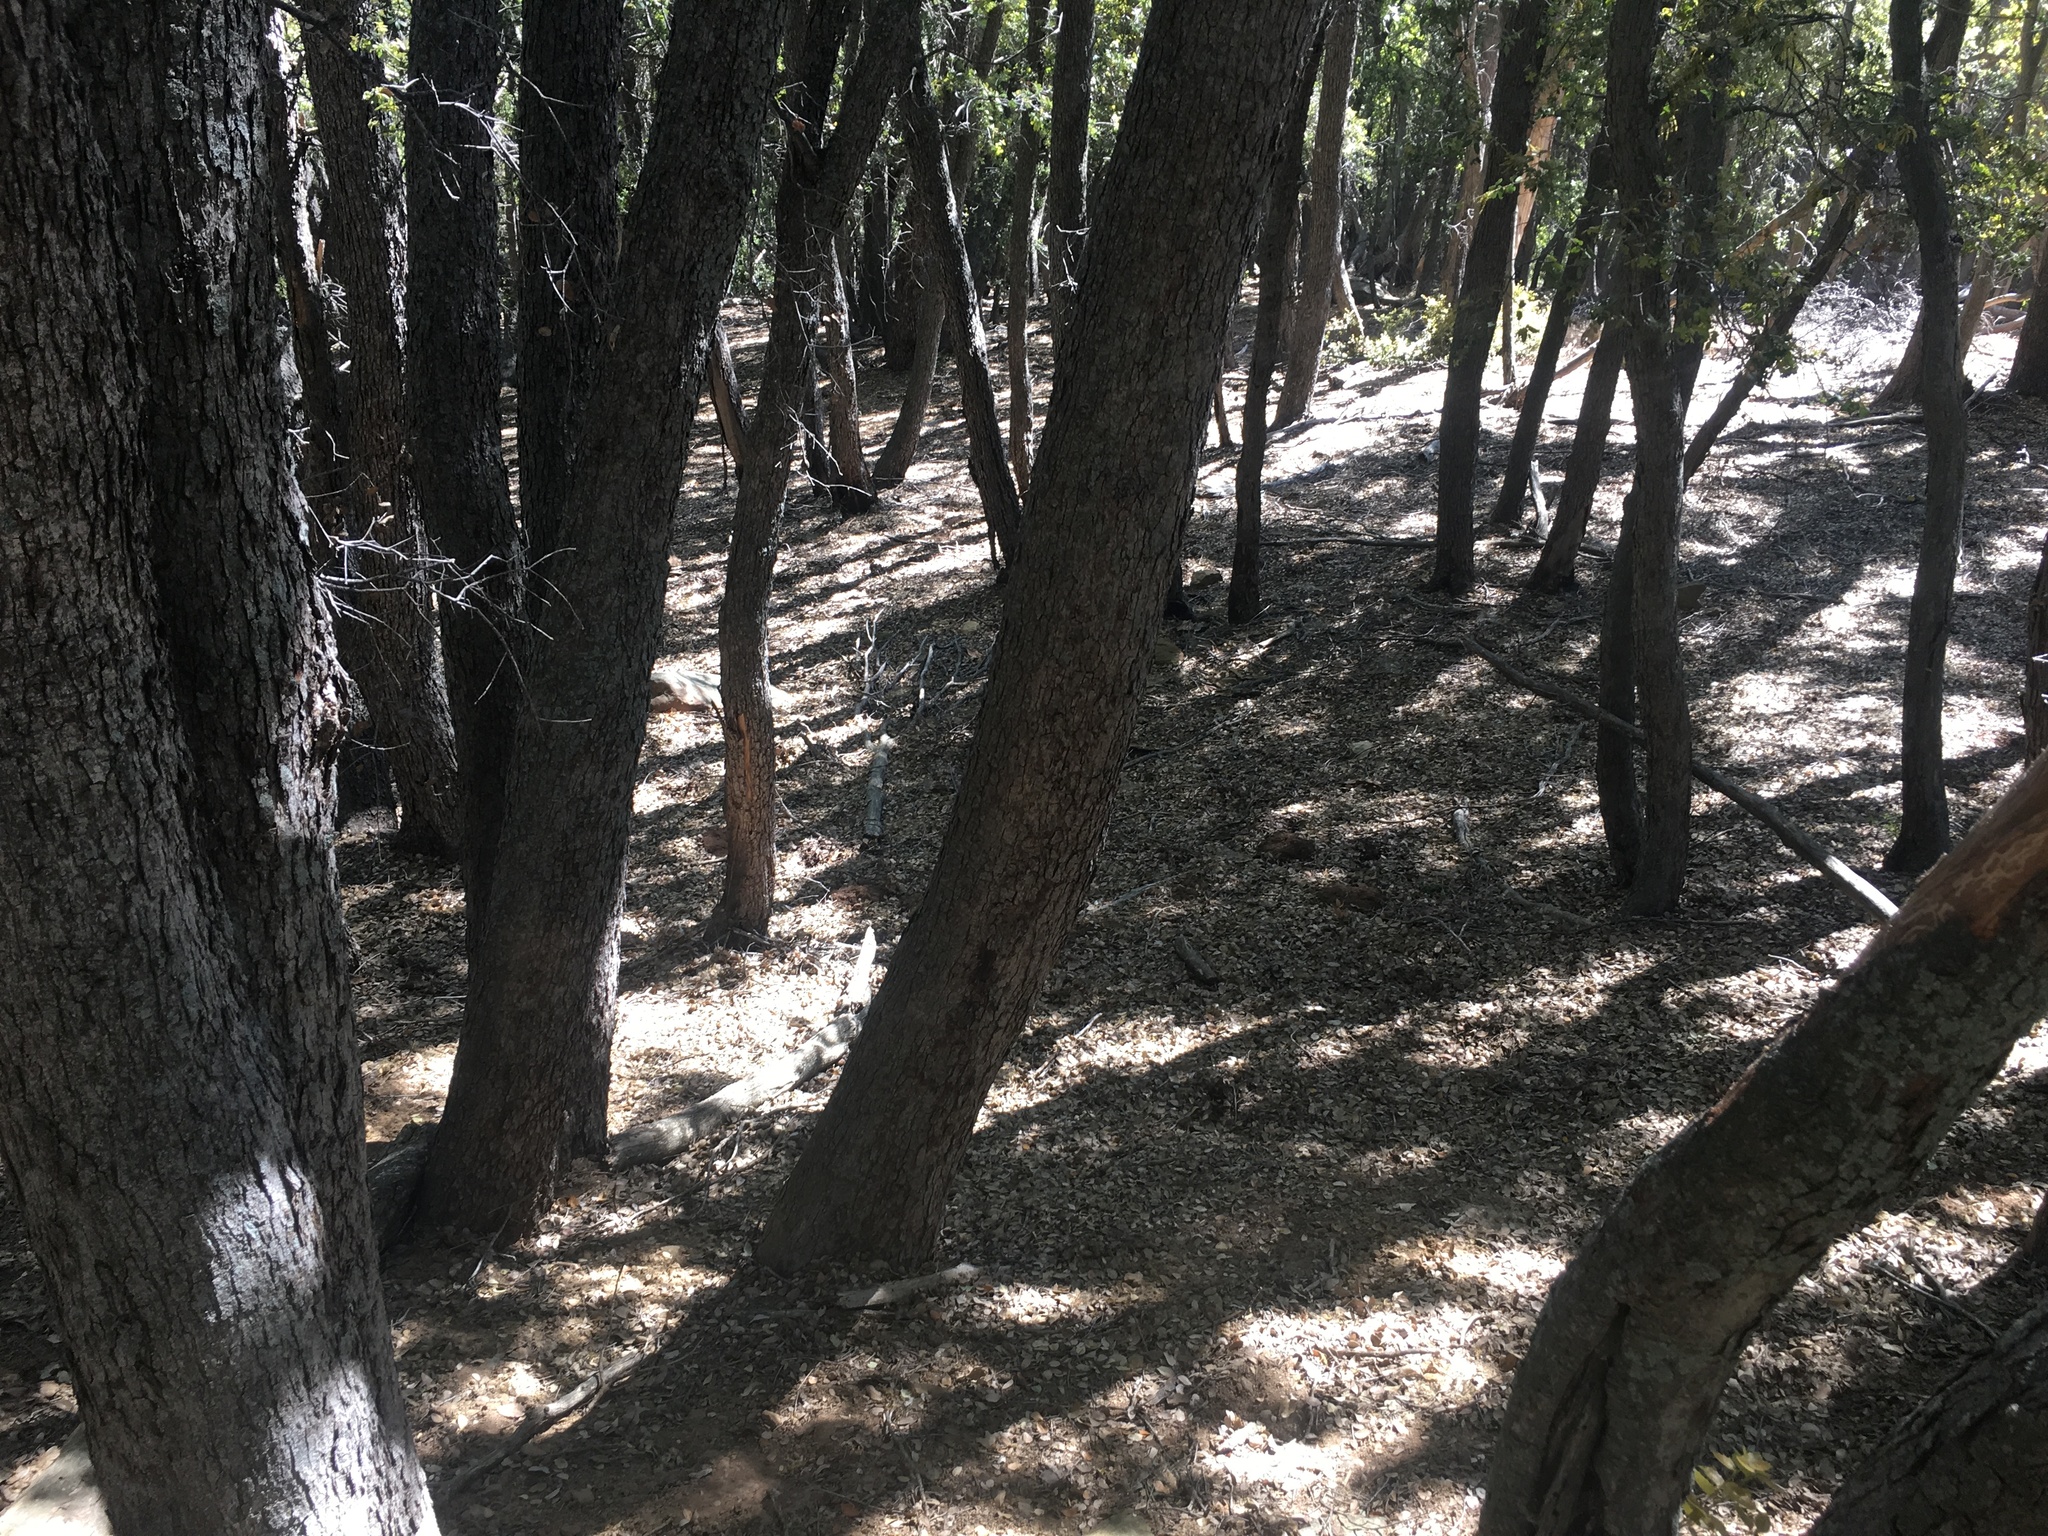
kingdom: Plantae
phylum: Tracheophyta
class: Magnoliopsida
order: Fagales
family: Fagaceae
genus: Quercus
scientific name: Quercus chrysolepis
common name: Canyon live oak
